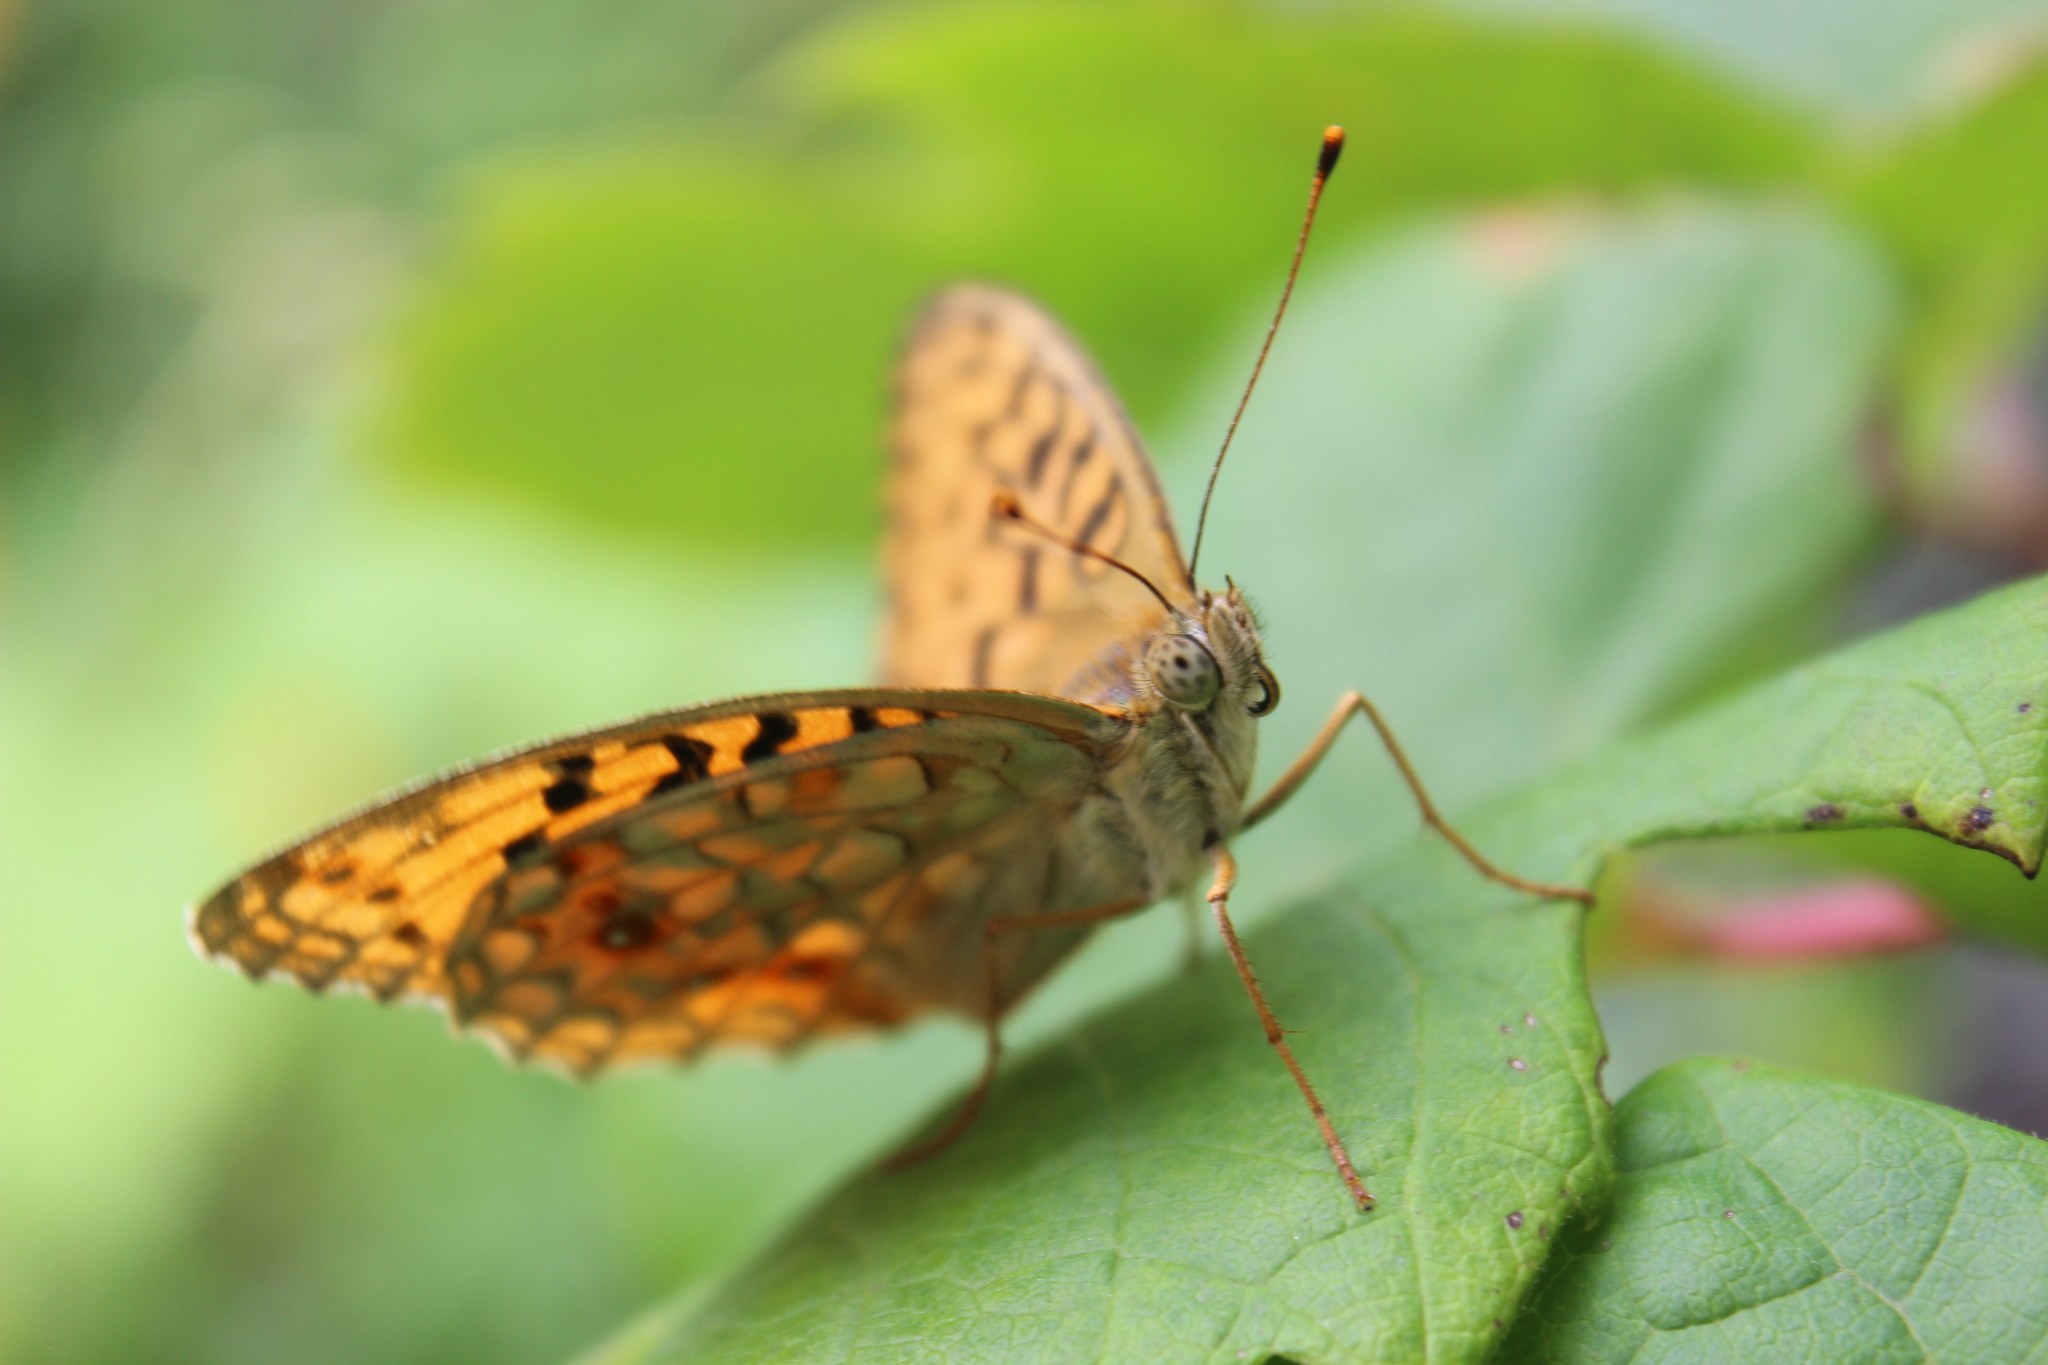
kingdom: Animalia
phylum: Arthropoda
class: Insecta
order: Lepidoptera
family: Nymphalidae
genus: Fabriciana
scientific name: Fabriciana adippe
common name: High brown fritillary
